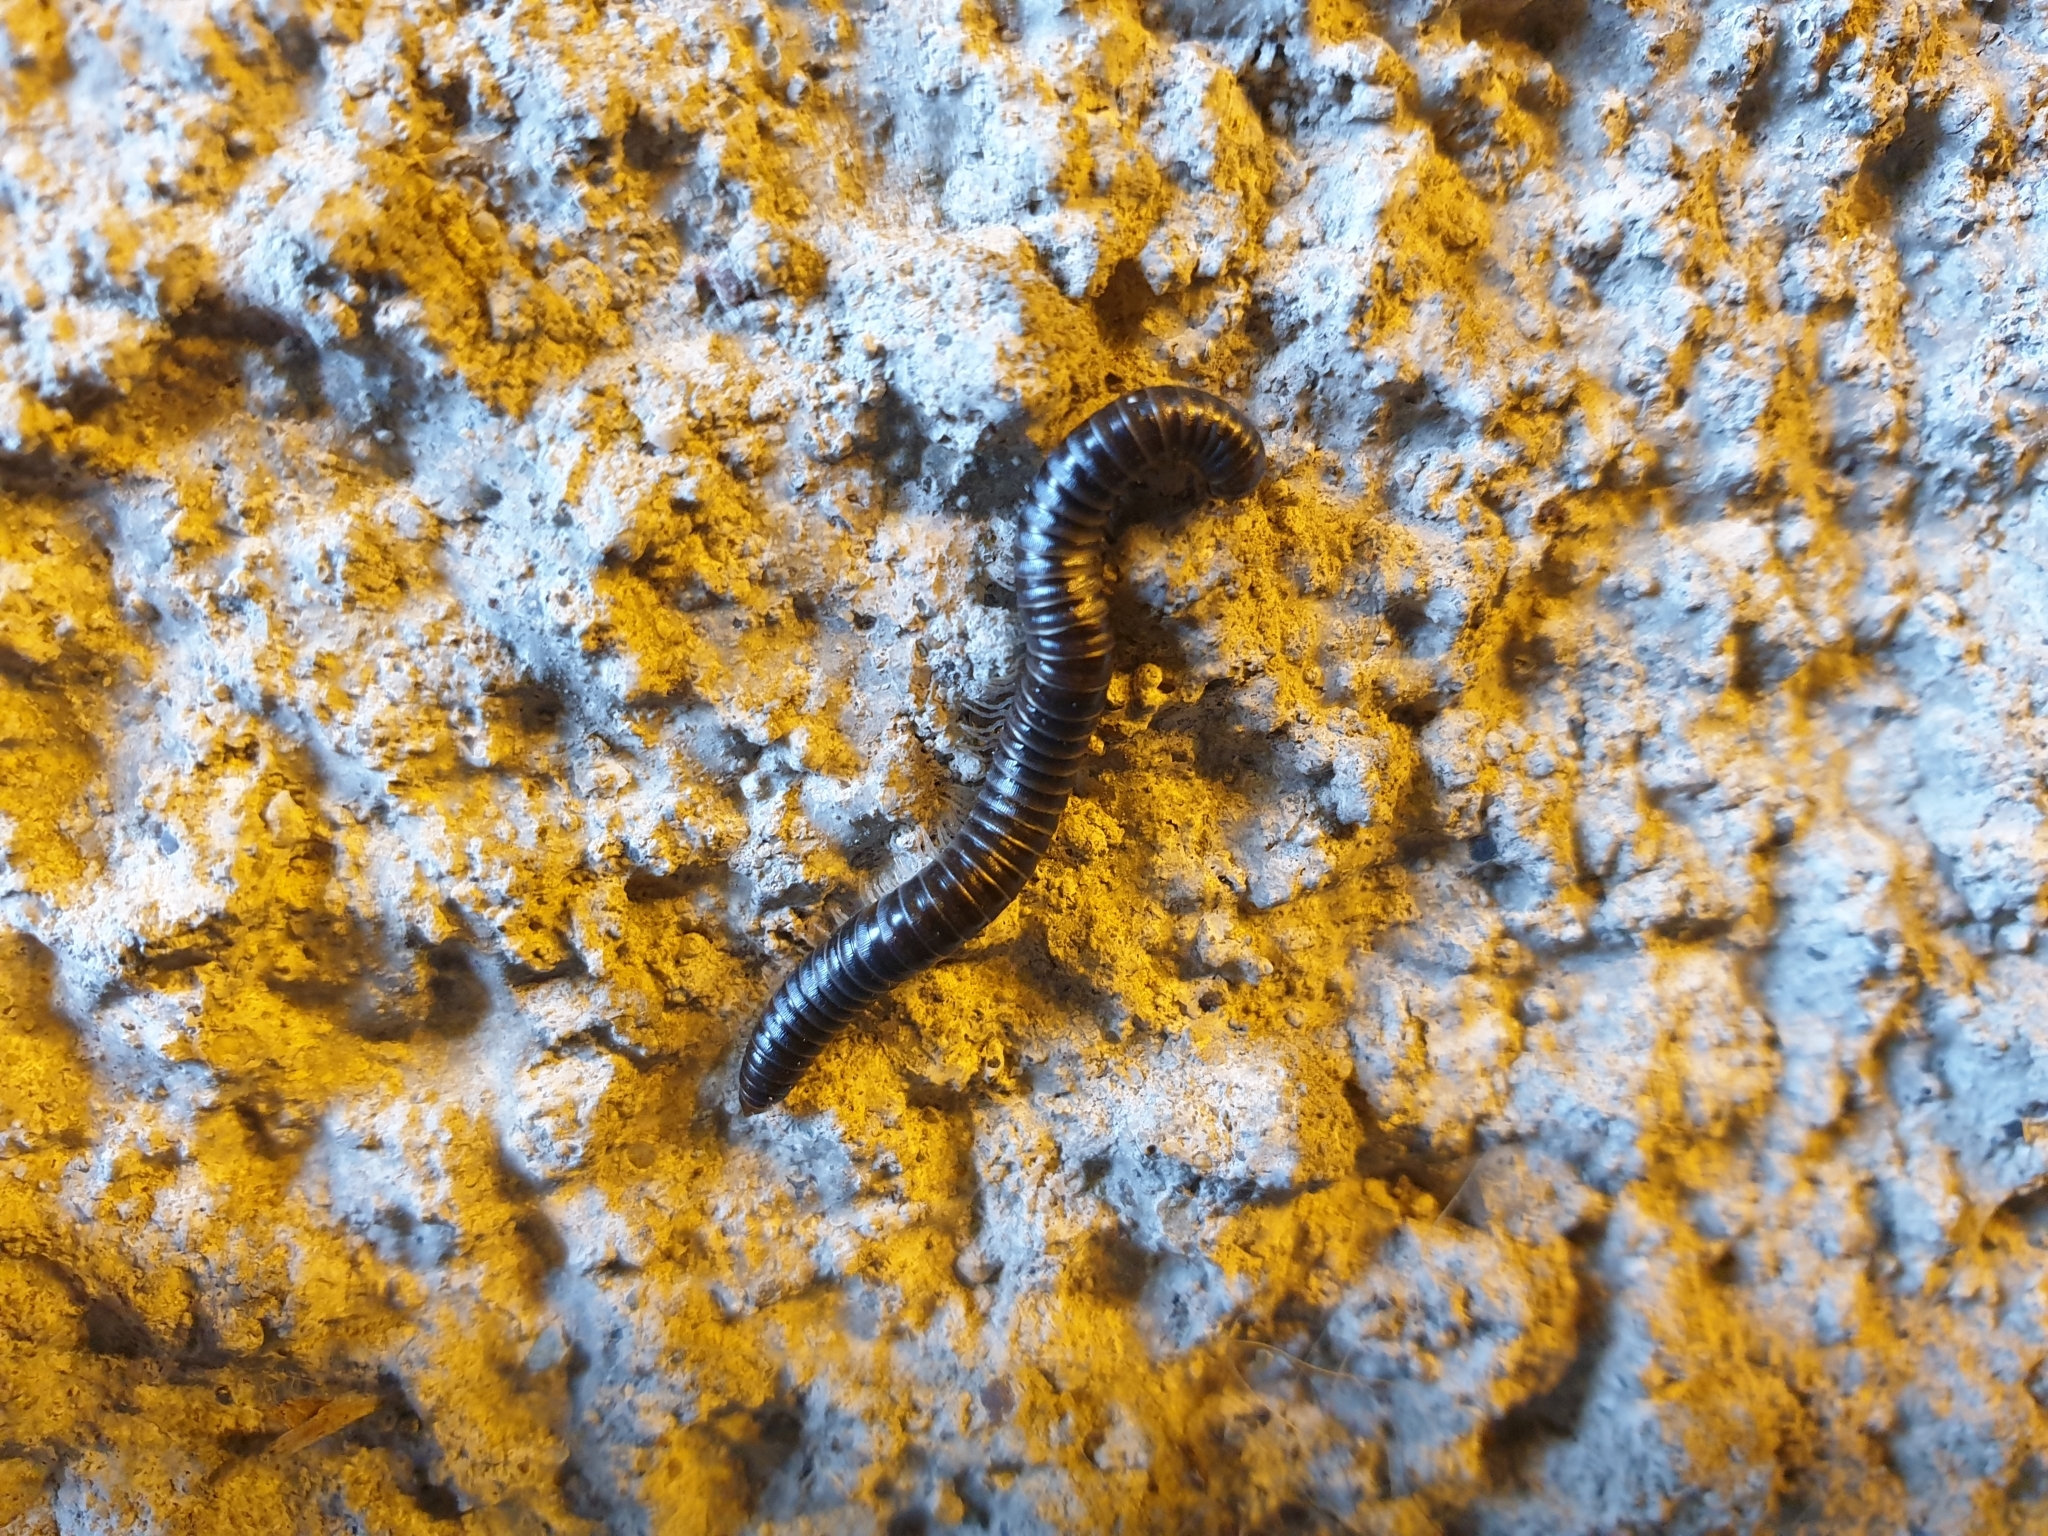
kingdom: Animalia
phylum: Arthropoda
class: Diplopoda
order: Julida
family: Julidae
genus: Tachypodoiulus
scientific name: Tachypodoiulus niger
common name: White-legged snake millipede
